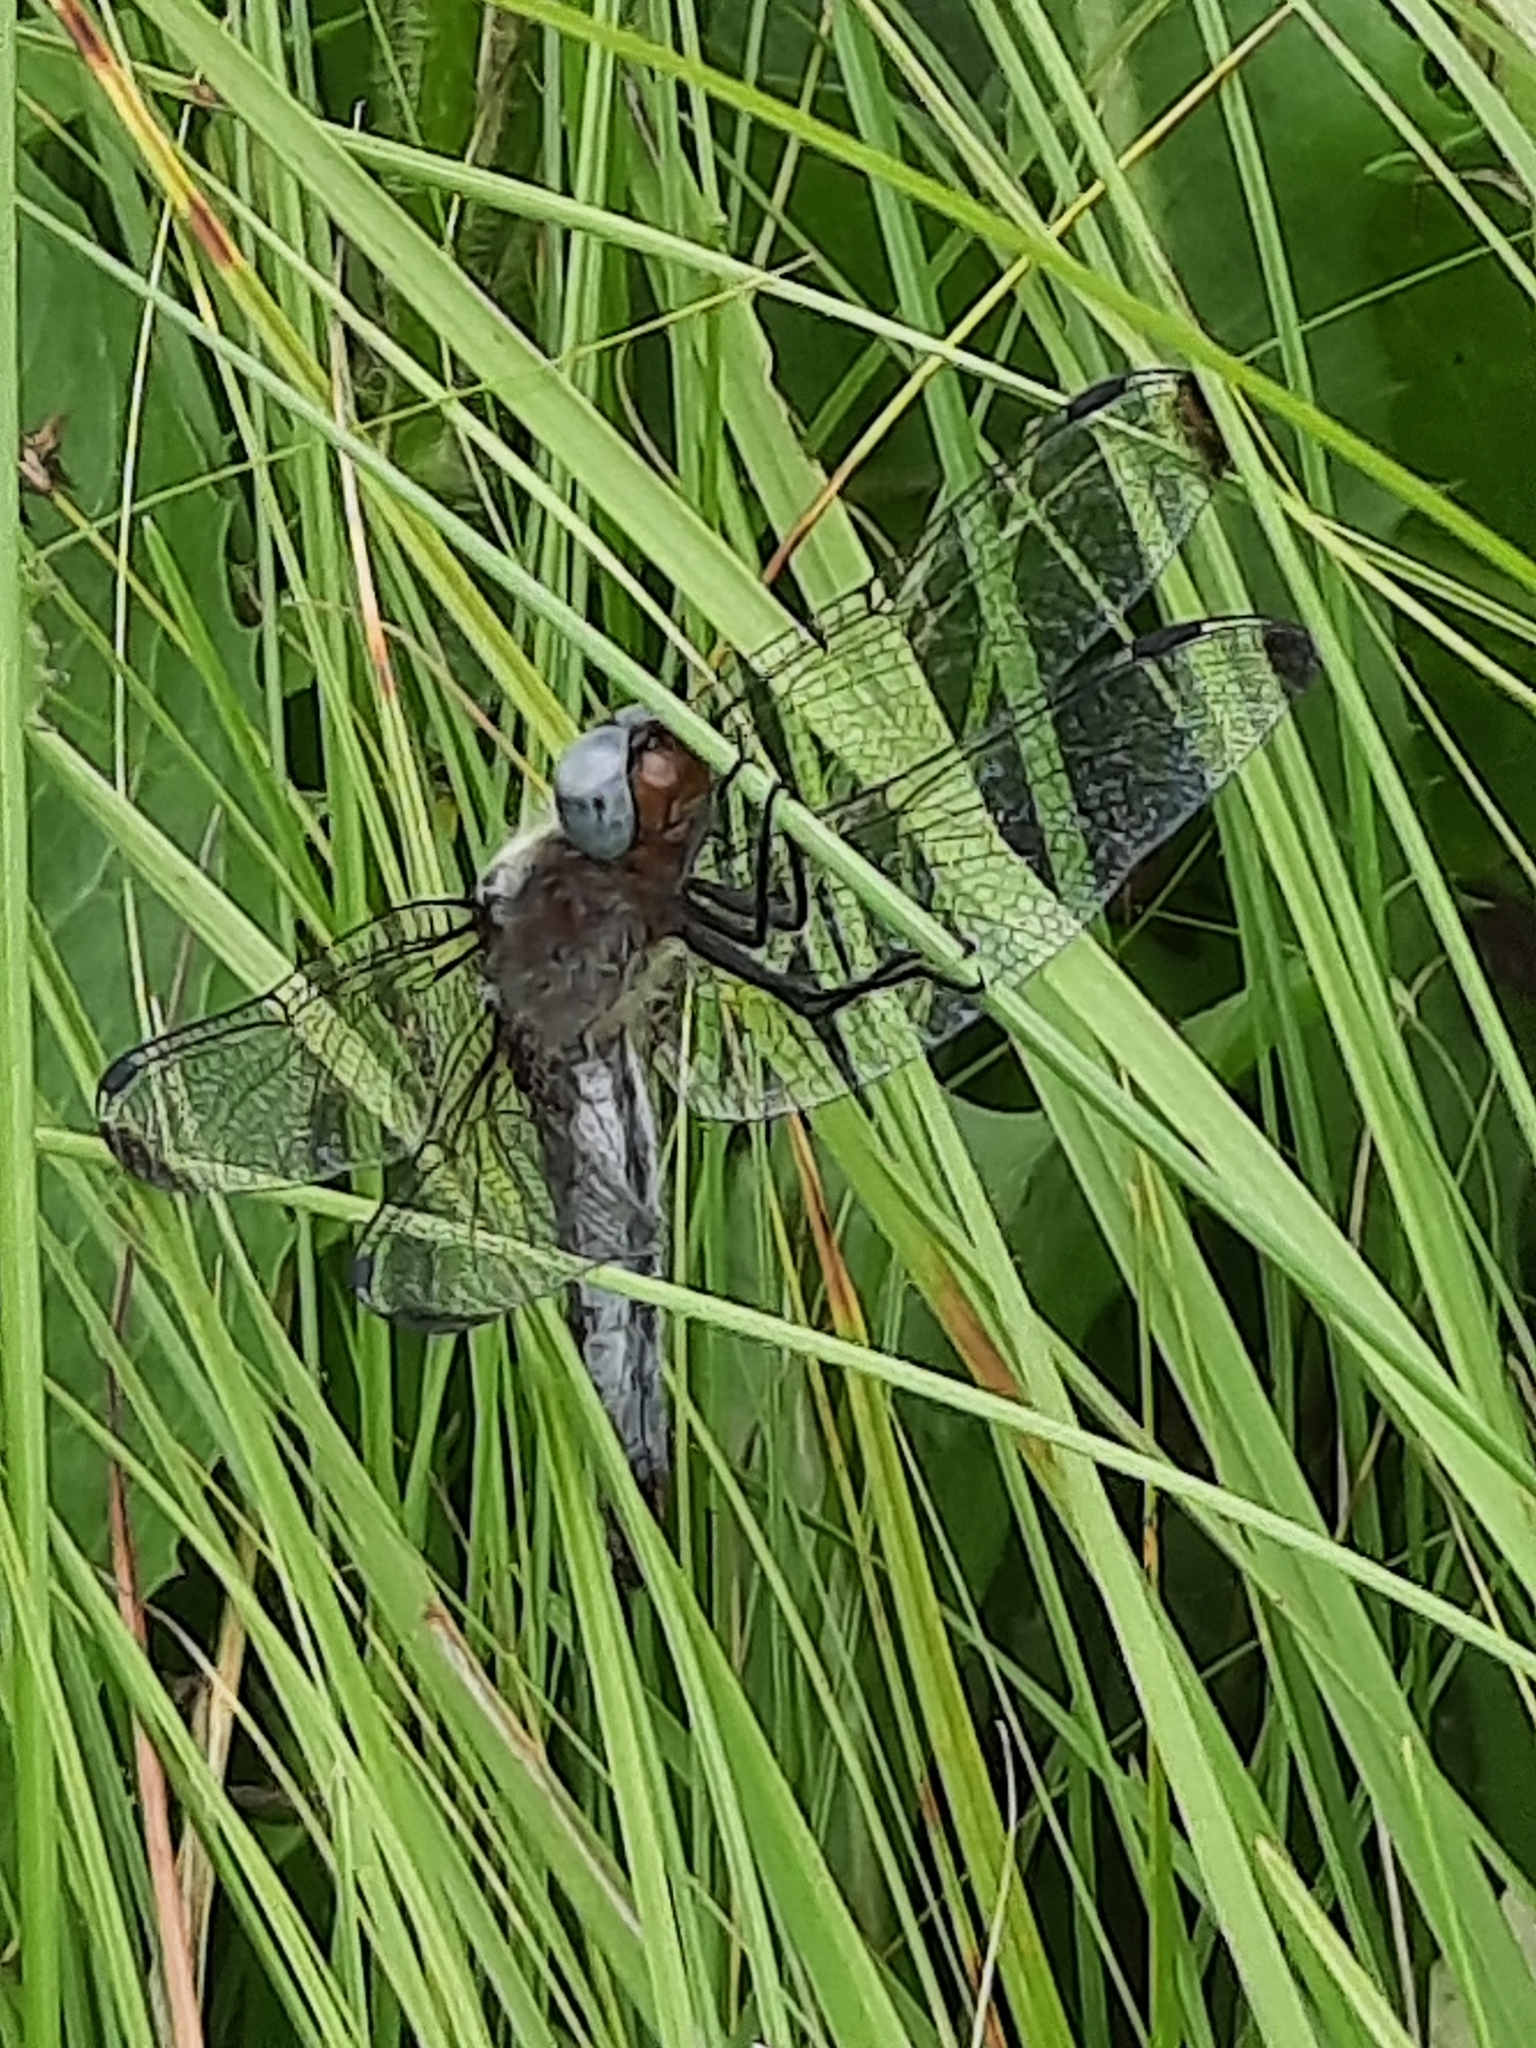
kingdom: Animalia
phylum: Arthropoda
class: Insecta
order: Odonata
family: Libellulidae
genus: Libellula
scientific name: Libellula fulva
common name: Blue chaser
